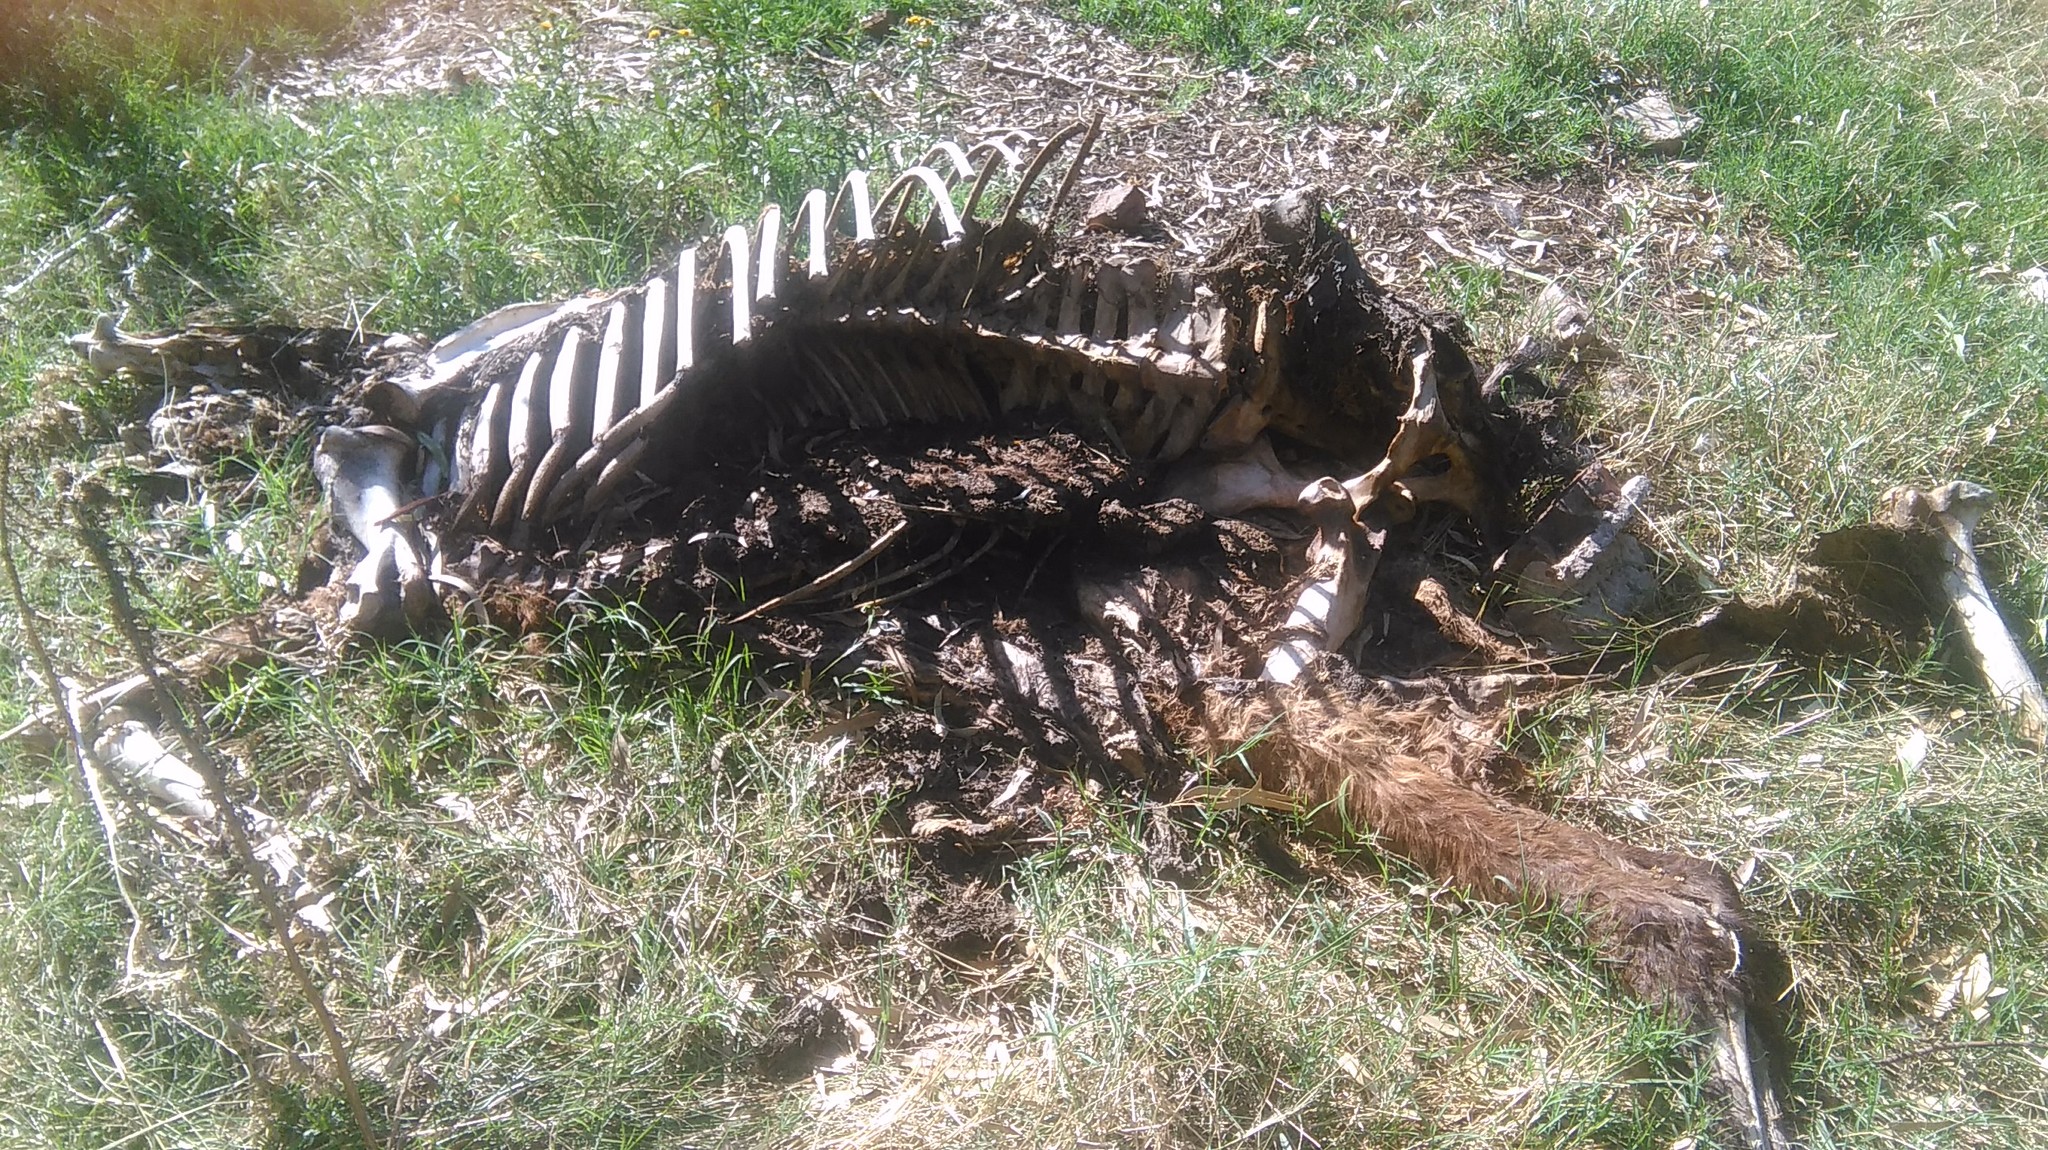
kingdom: Animalia
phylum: Chordata
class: Mammalia
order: Perissodactyla
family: Equidae
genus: Equus
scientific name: Equus caballus
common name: Horse
